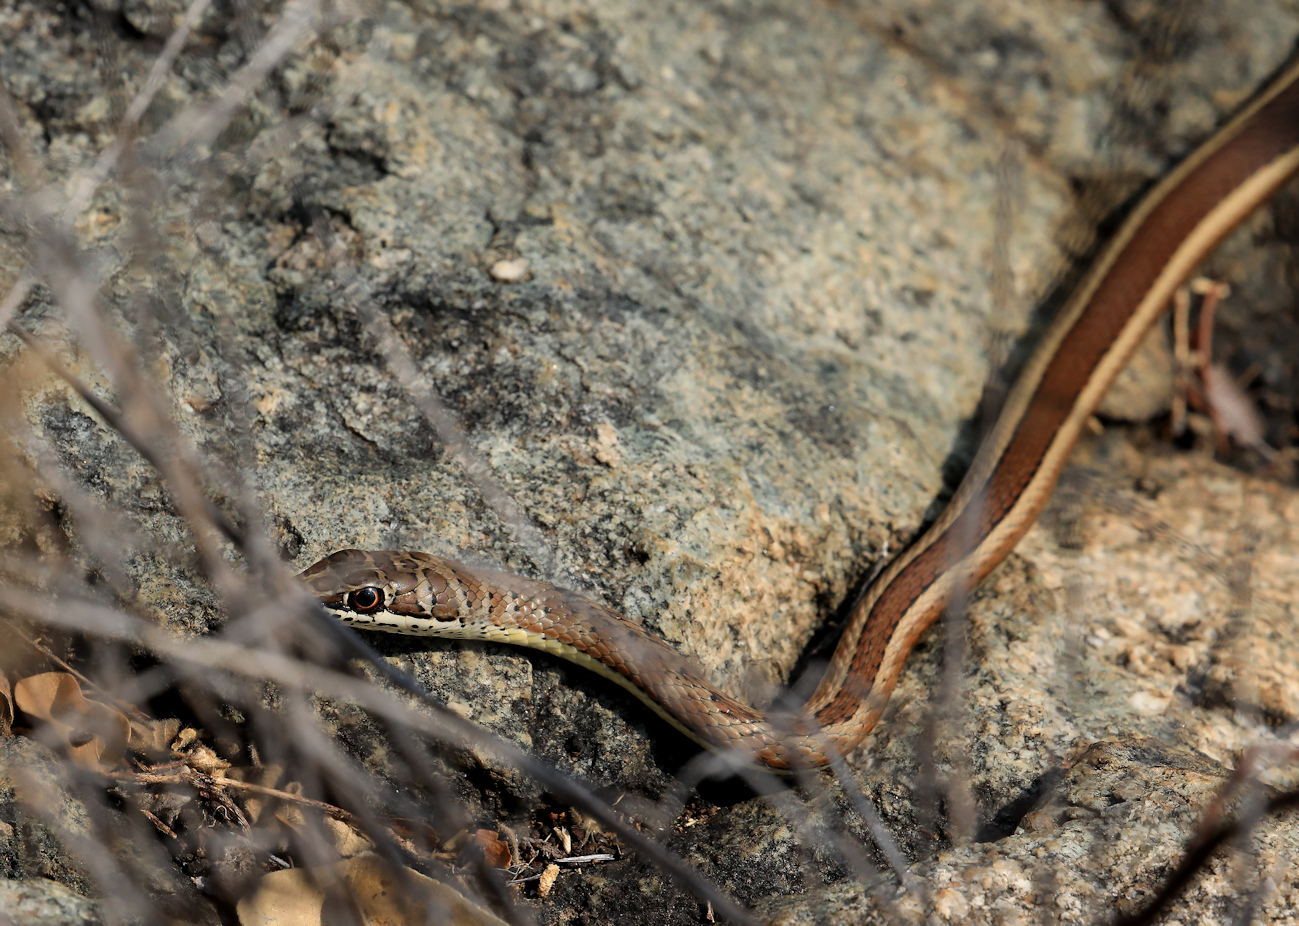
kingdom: Animalia
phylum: Chordata
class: Squamata
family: Psammophiidae
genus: Psammophis
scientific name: Psammophis subtaeniatus
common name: Stripe-bellied sand snake
